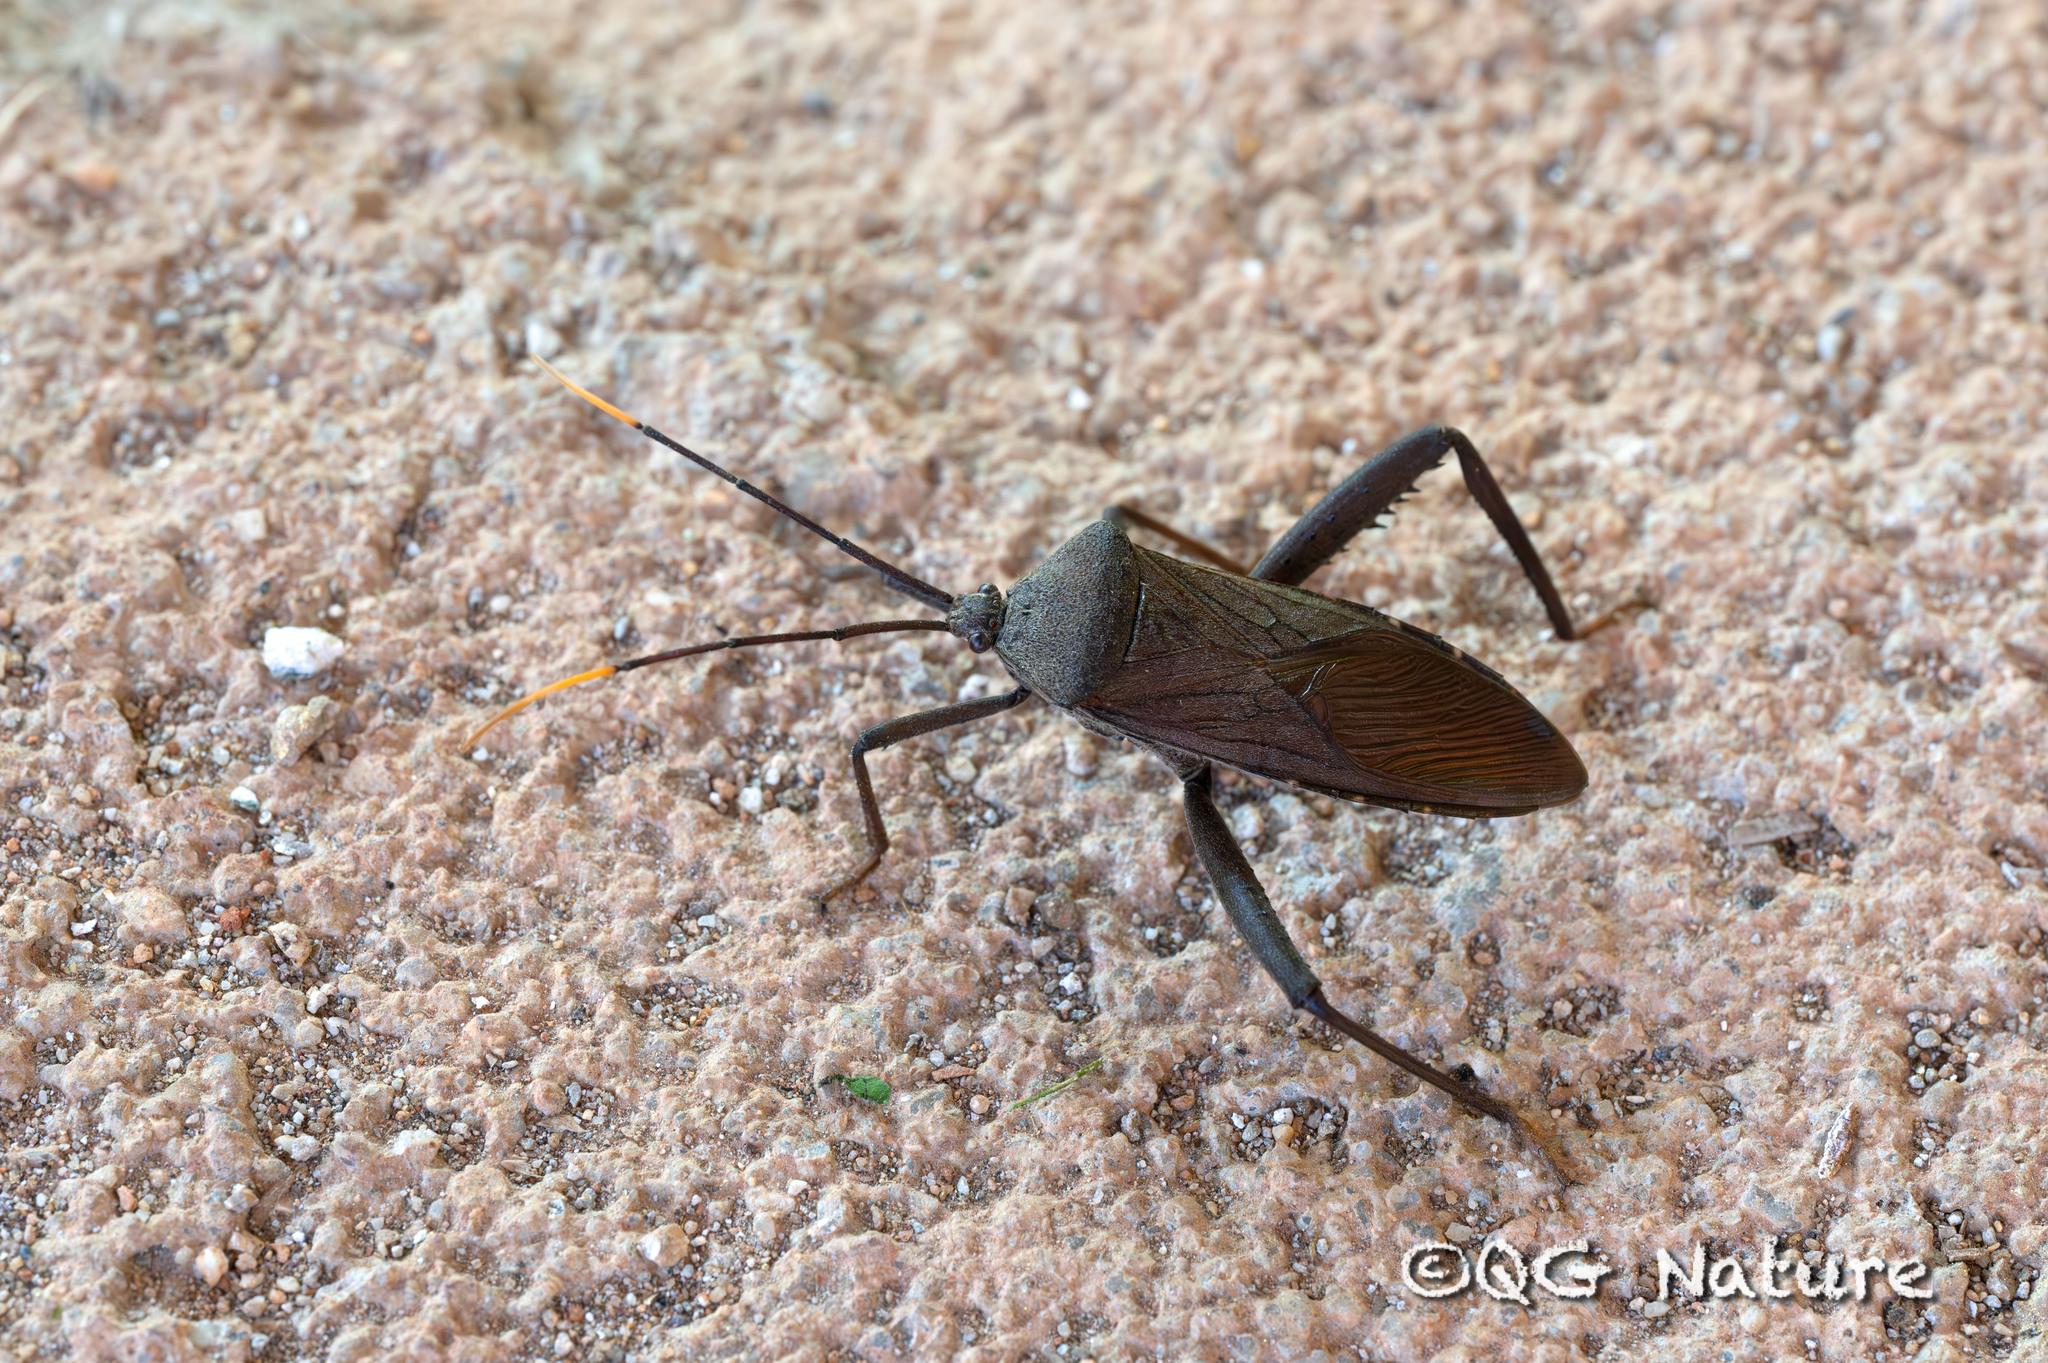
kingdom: Animalia
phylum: Arthropoda
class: Insecta
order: Hemiptera
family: Coreidae
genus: Notobitus
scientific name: Notobitus excellens
